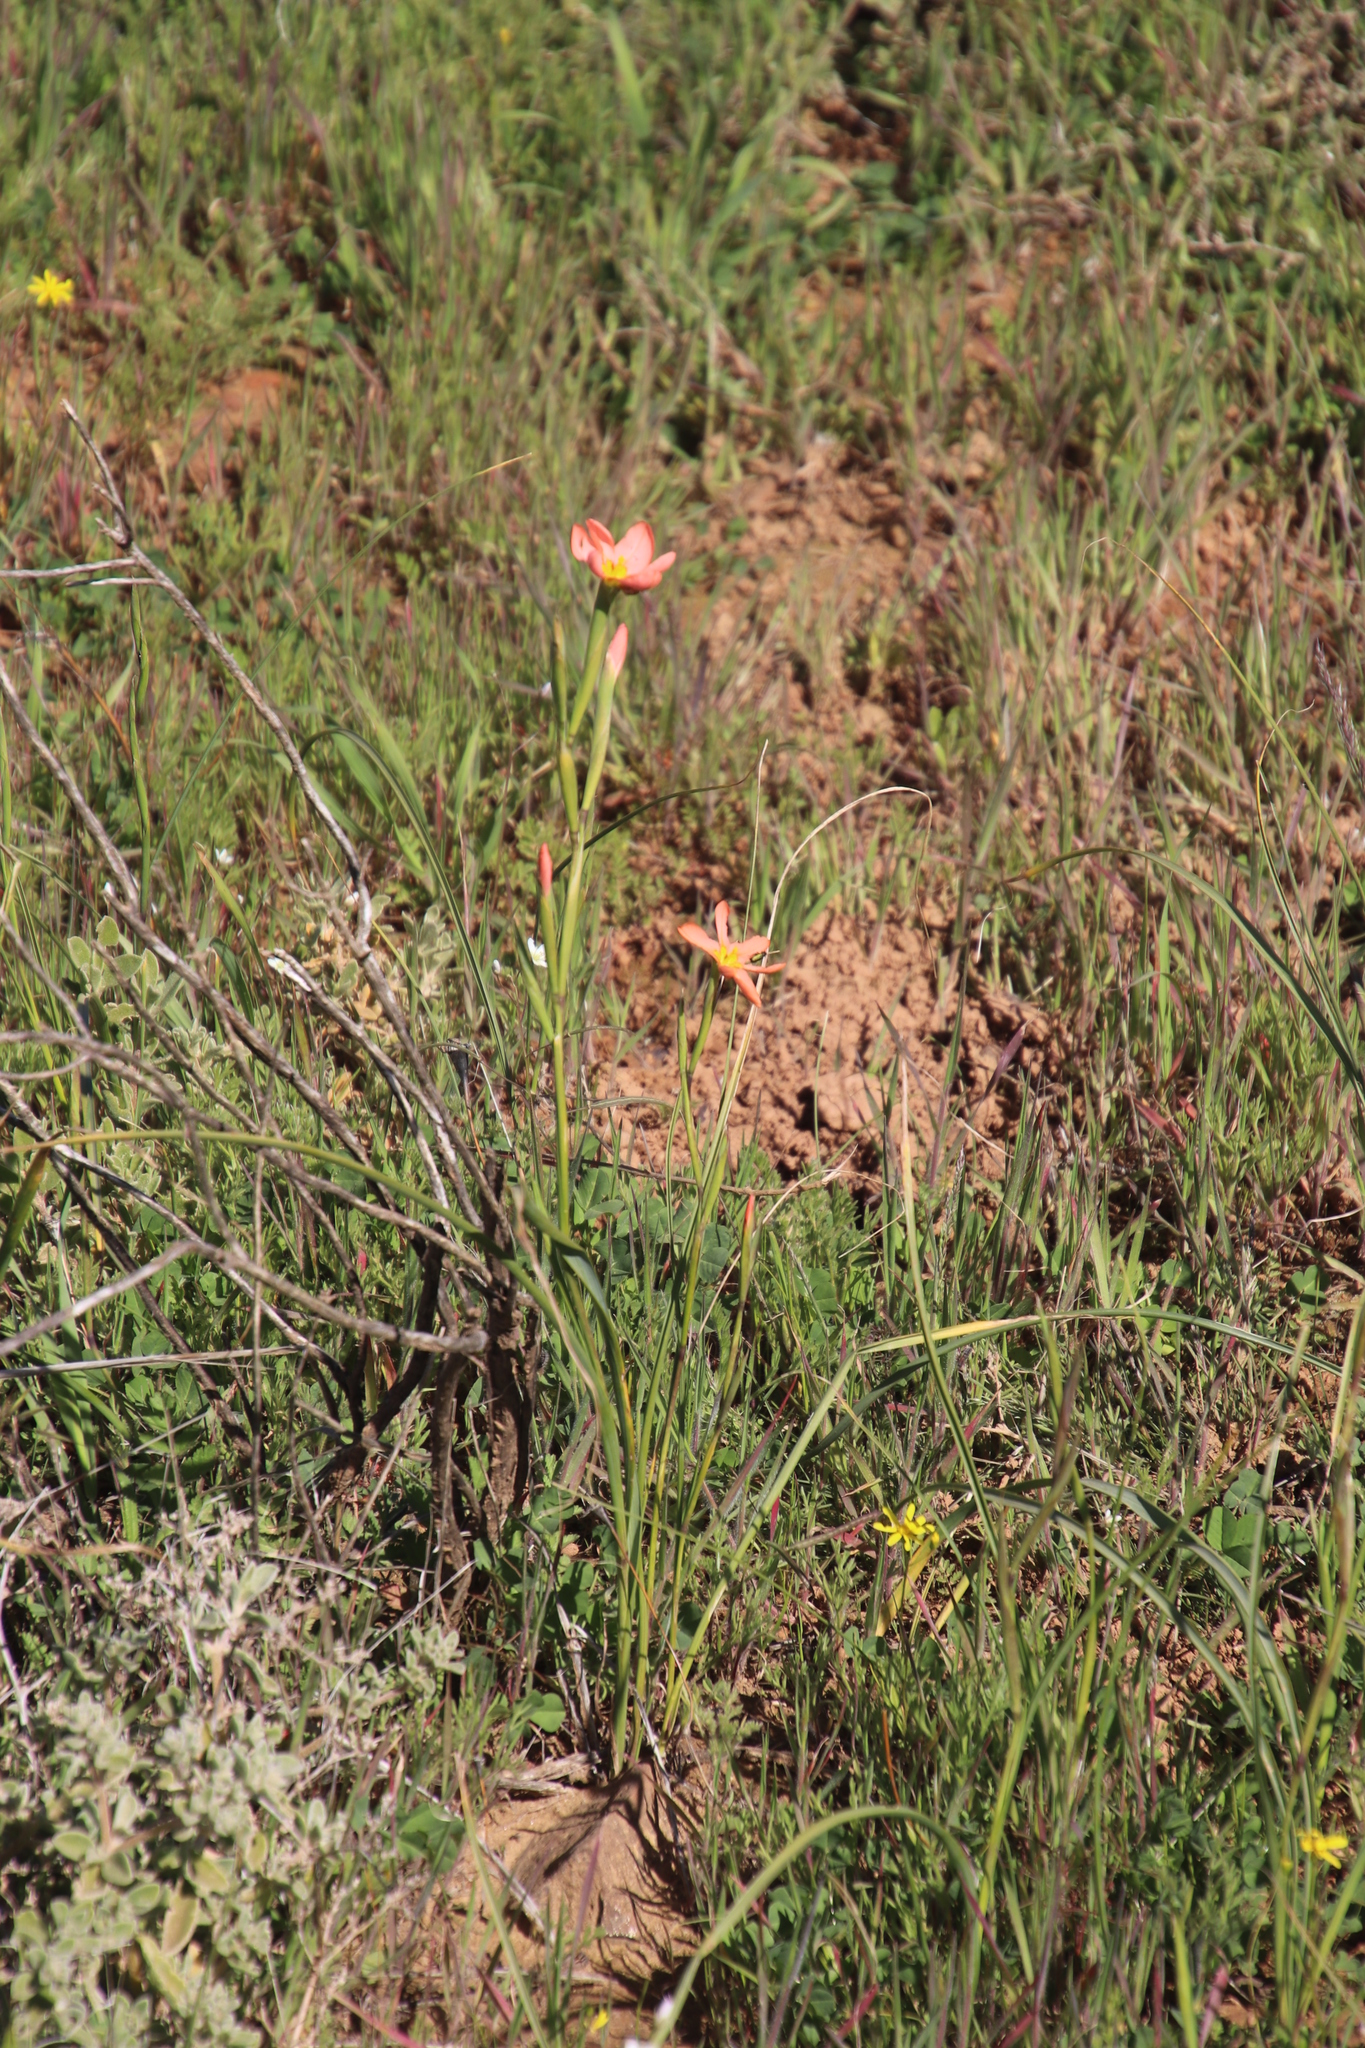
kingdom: Plantae
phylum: Tracheophyta
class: Liliopsida
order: Asparagales
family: Iridaceae
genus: Moraea
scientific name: Moraea miniata
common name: Two-leaf cape-tulip
